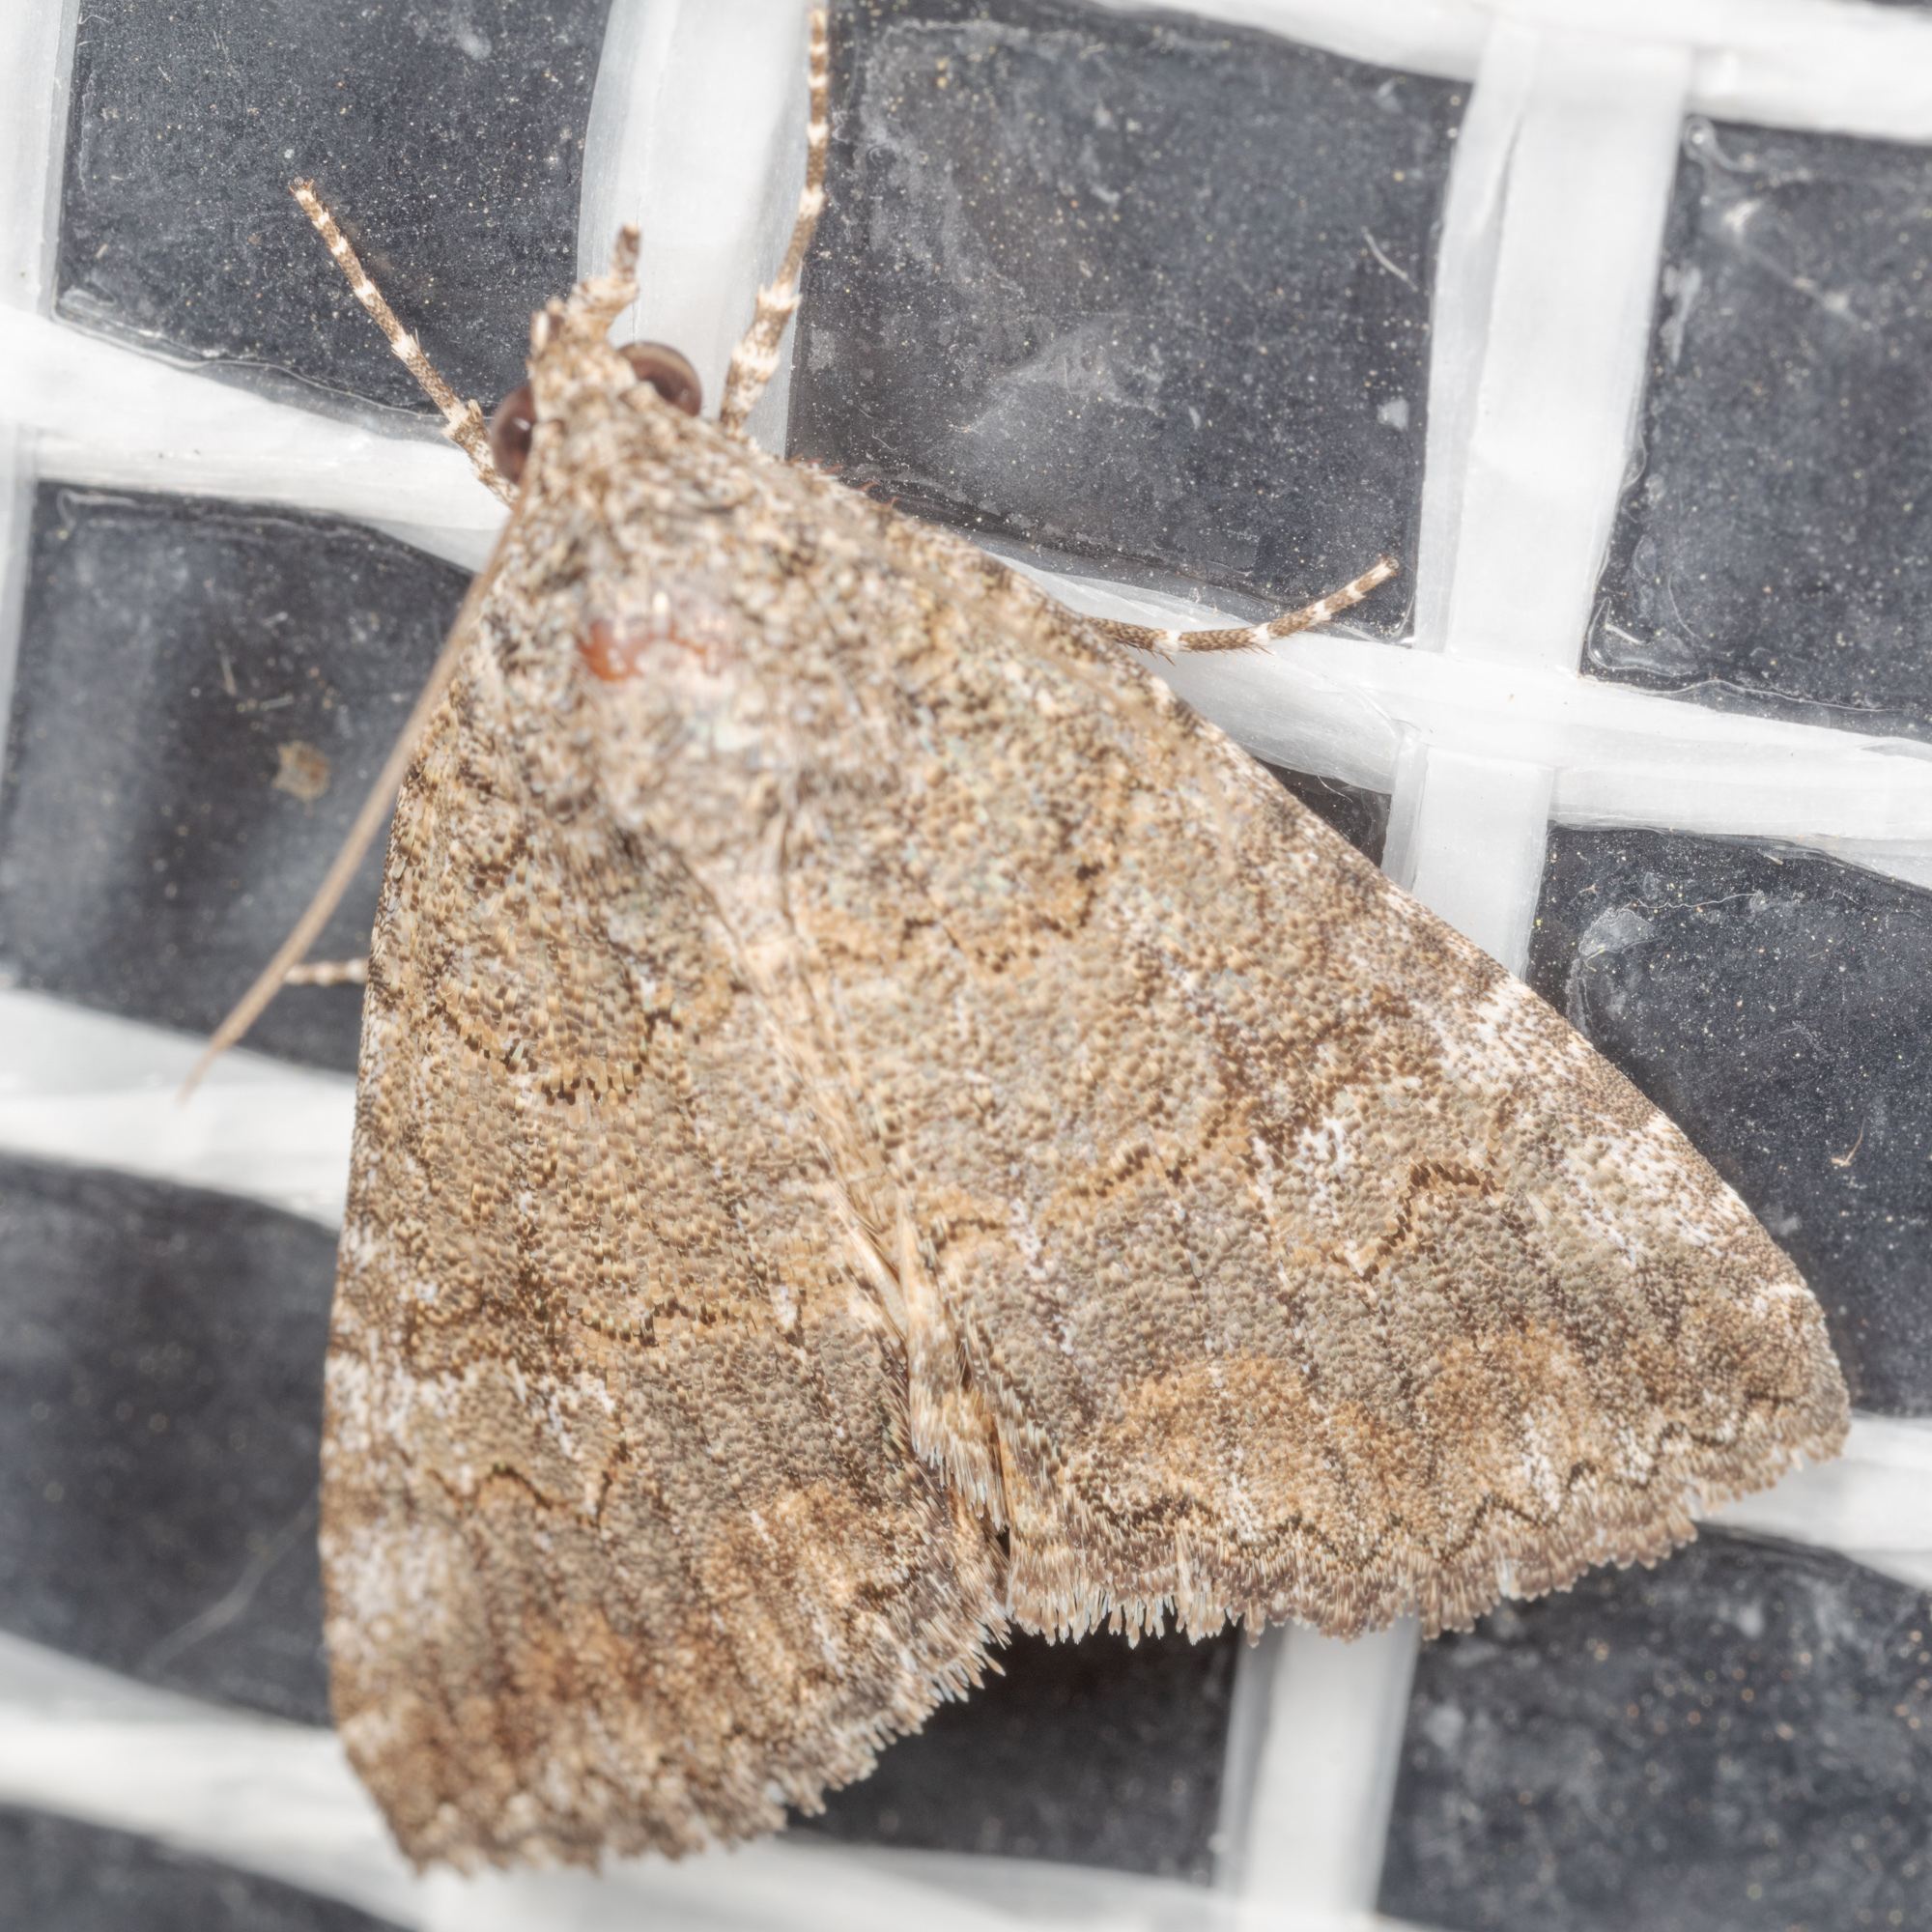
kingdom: Animalia
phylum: Arthropoda
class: Insecta
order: Lepidoptera
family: Erebidae
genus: Eubolina
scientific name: Eubolina impartialis
